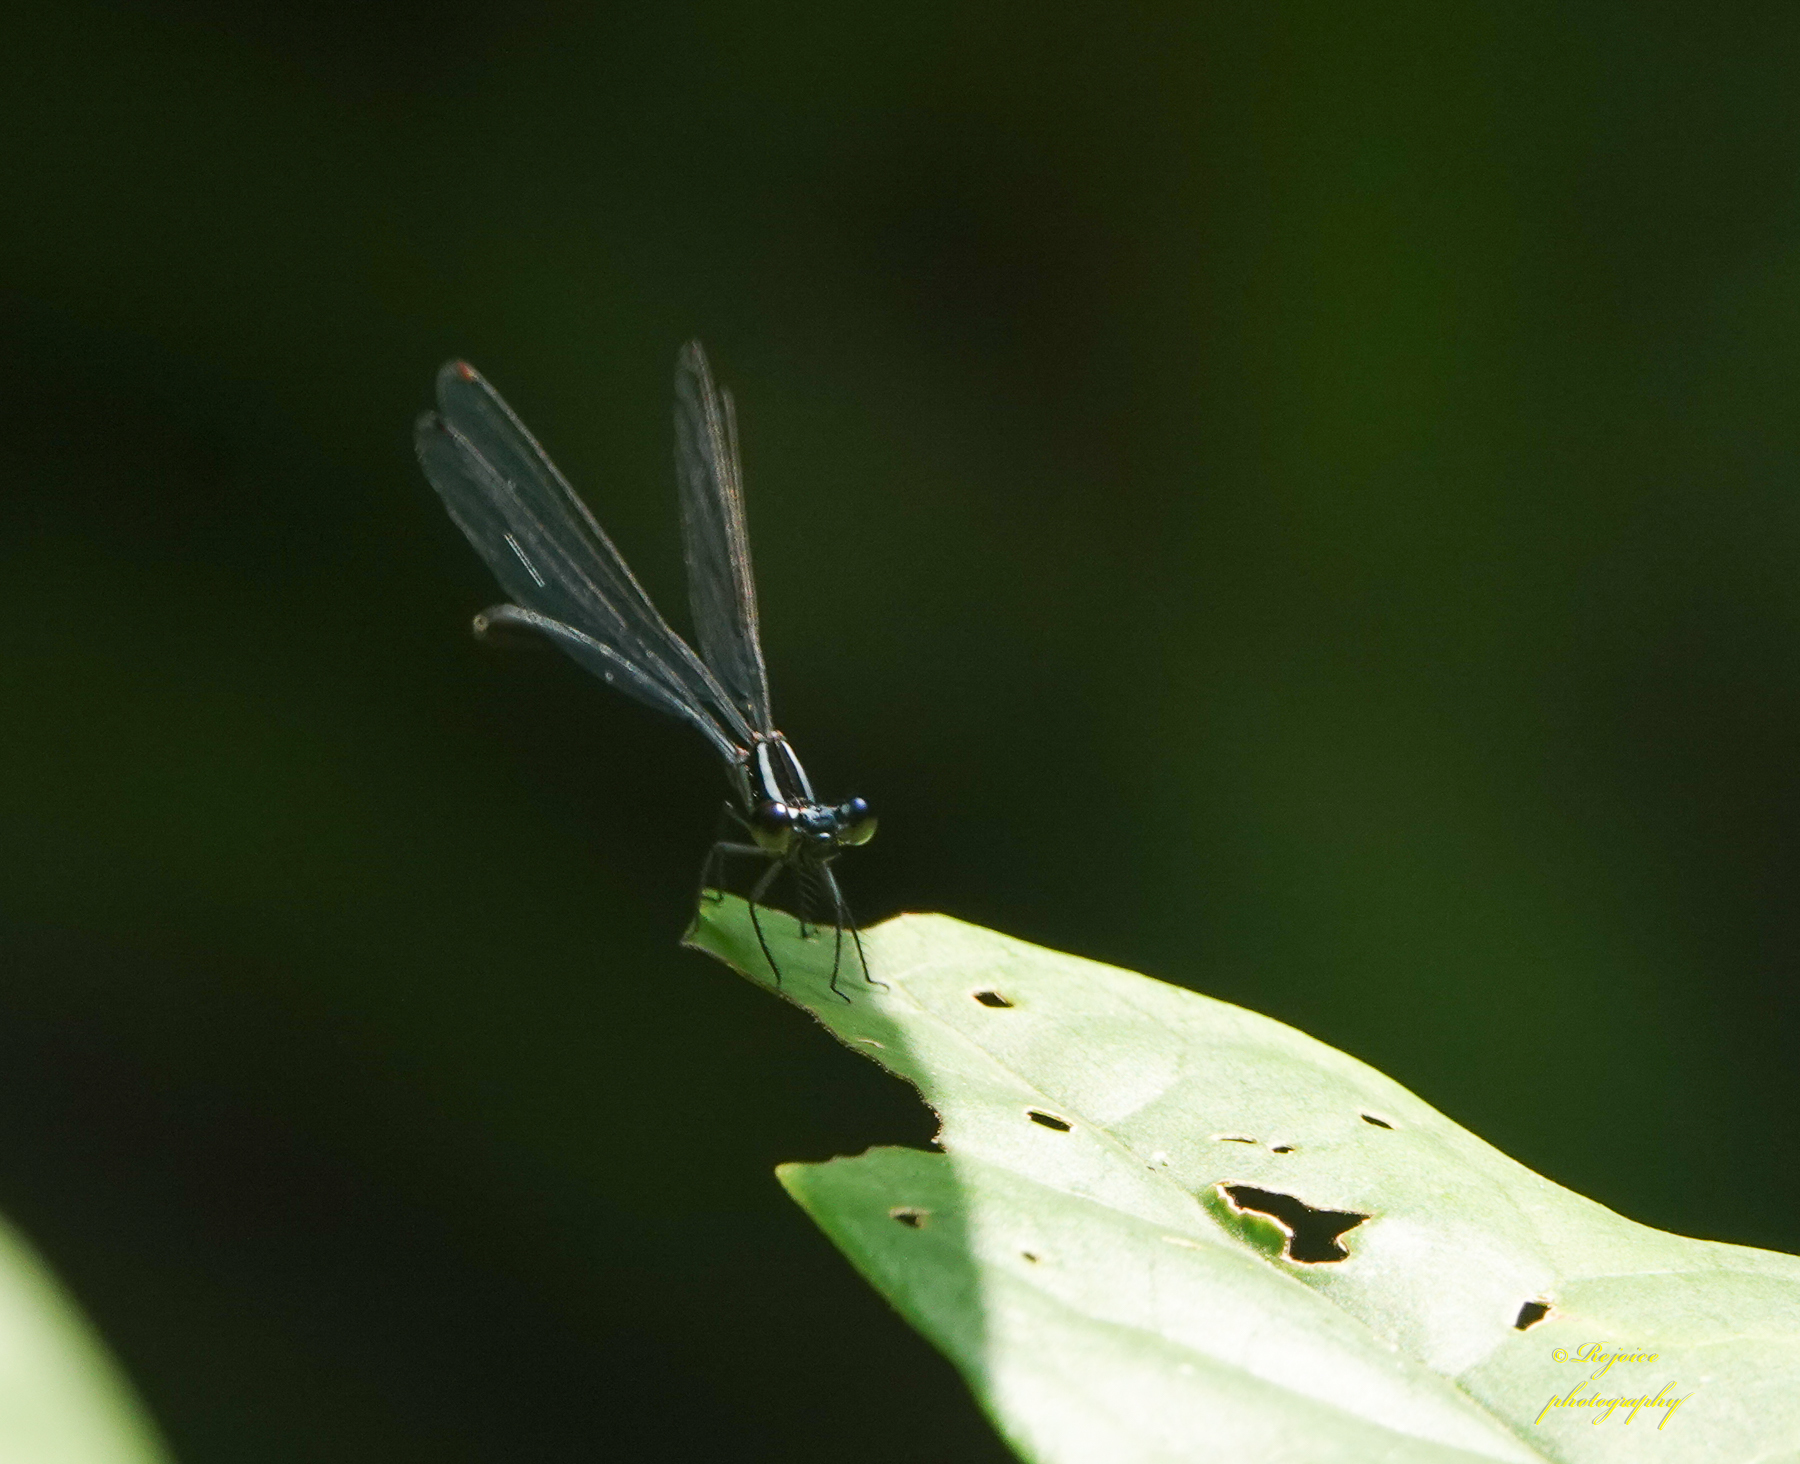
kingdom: Animalia
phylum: Arthropoda
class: Insecta
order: Odonata
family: Platycnemididae
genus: Calicnemia
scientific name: Calicnemia imitans
